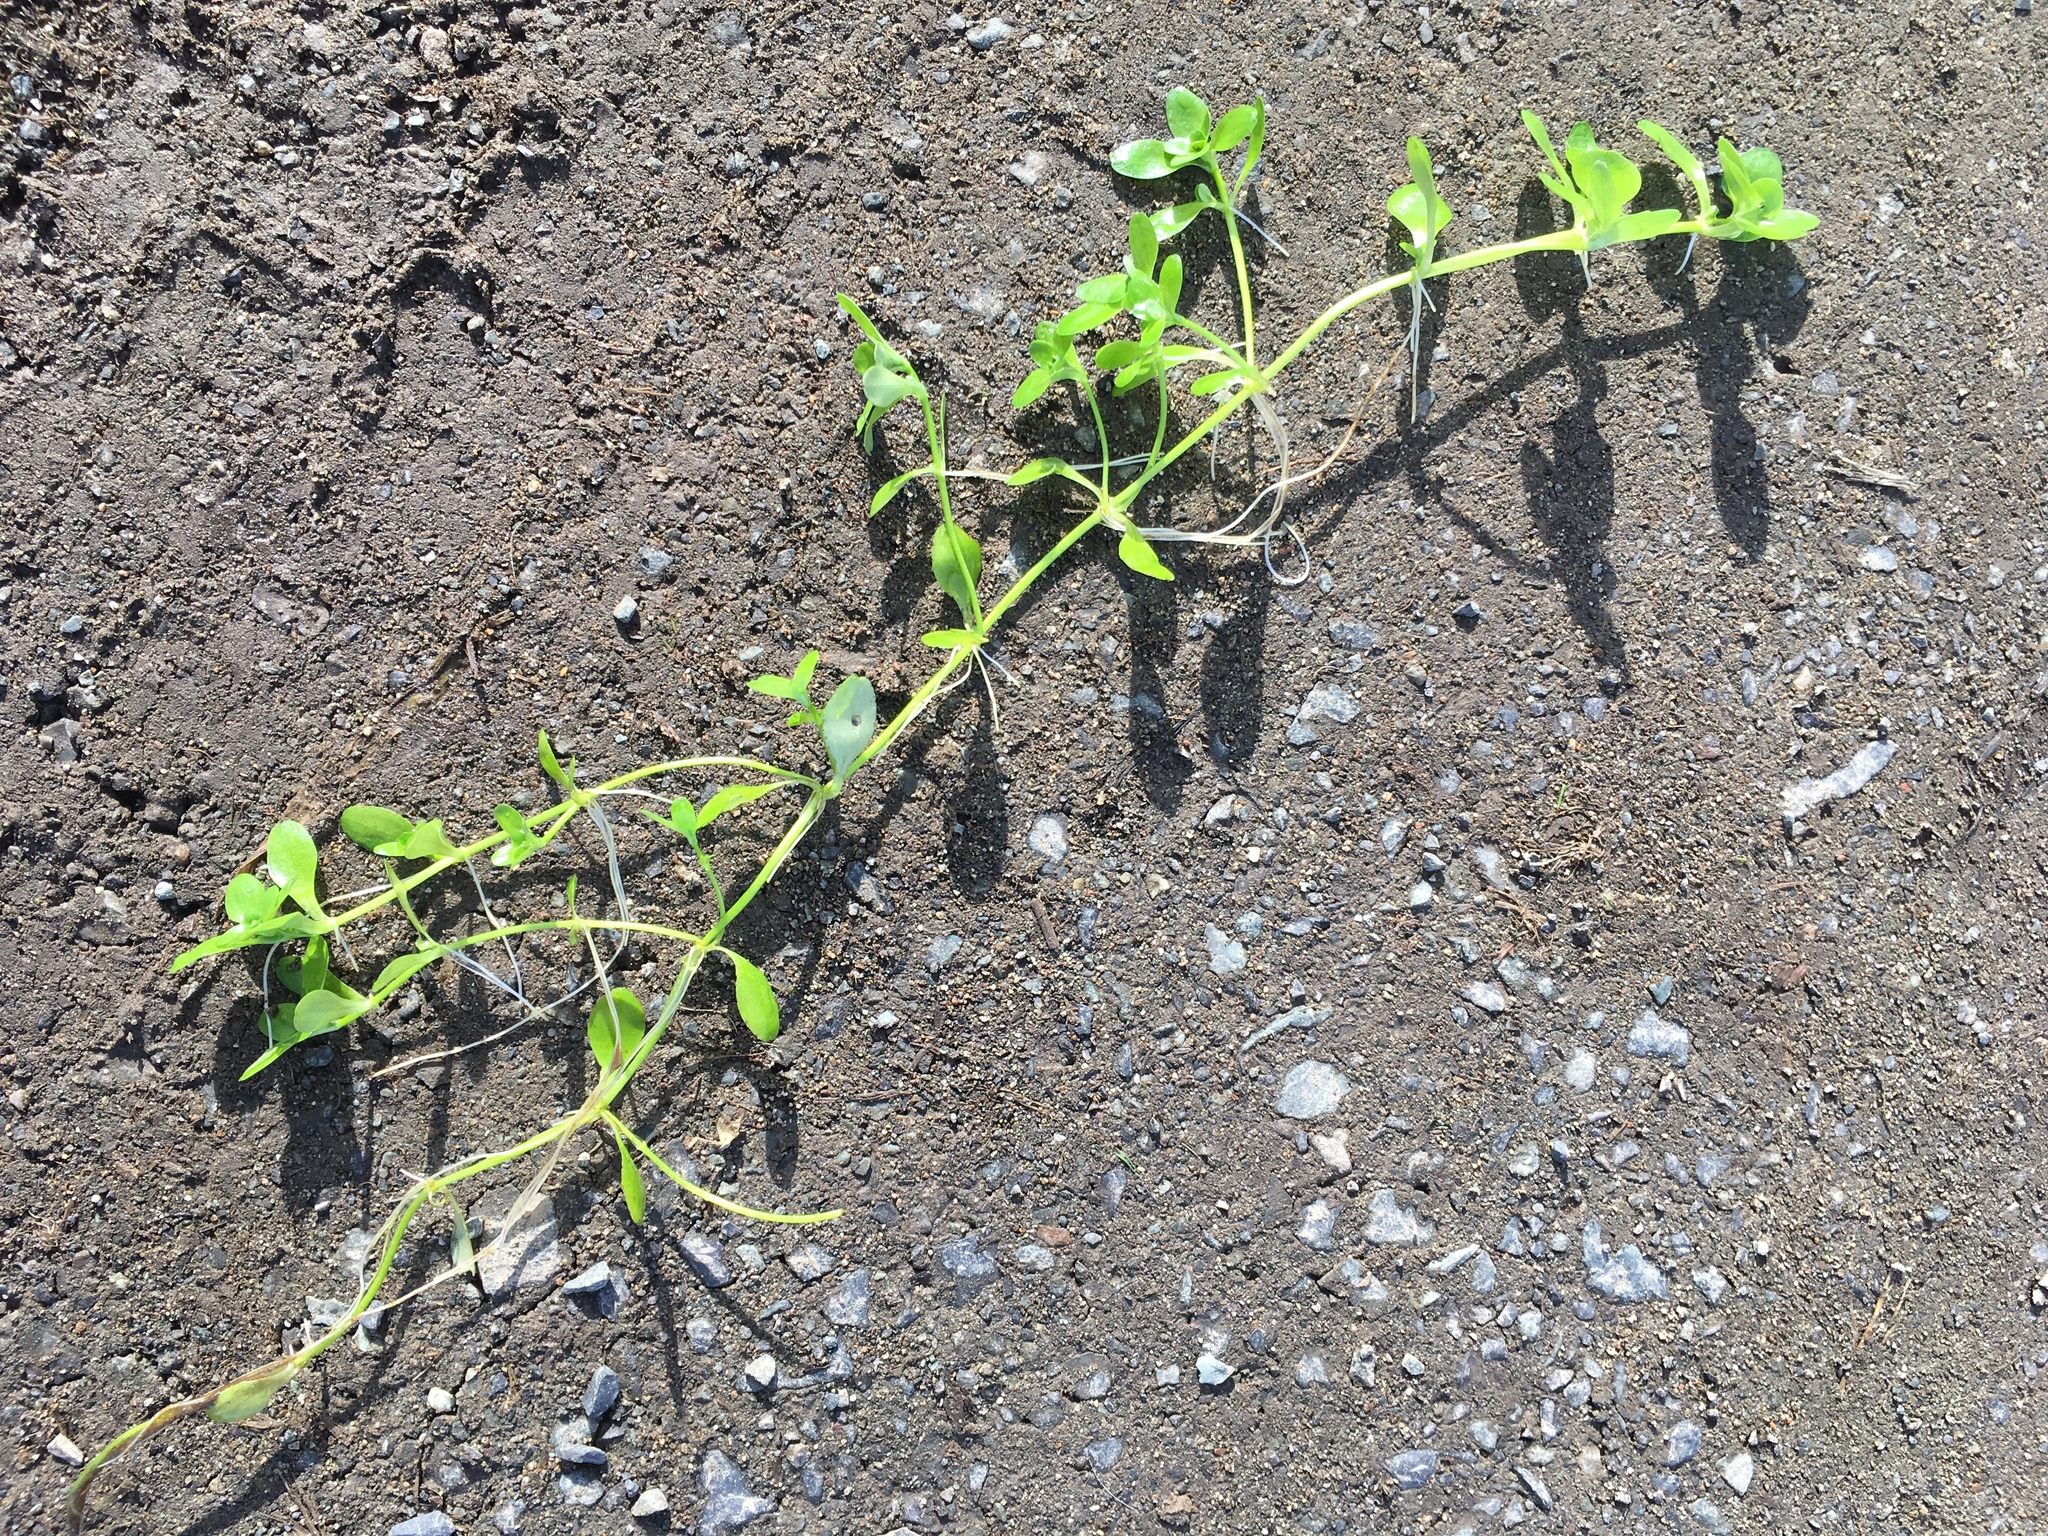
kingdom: Plantae
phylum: Tracheophyta
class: Magnoliopsida
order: Lamiales
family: Plantaginaceae
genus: Callitriche
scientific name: Callitriche stagnalis
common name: Common water-starwort
